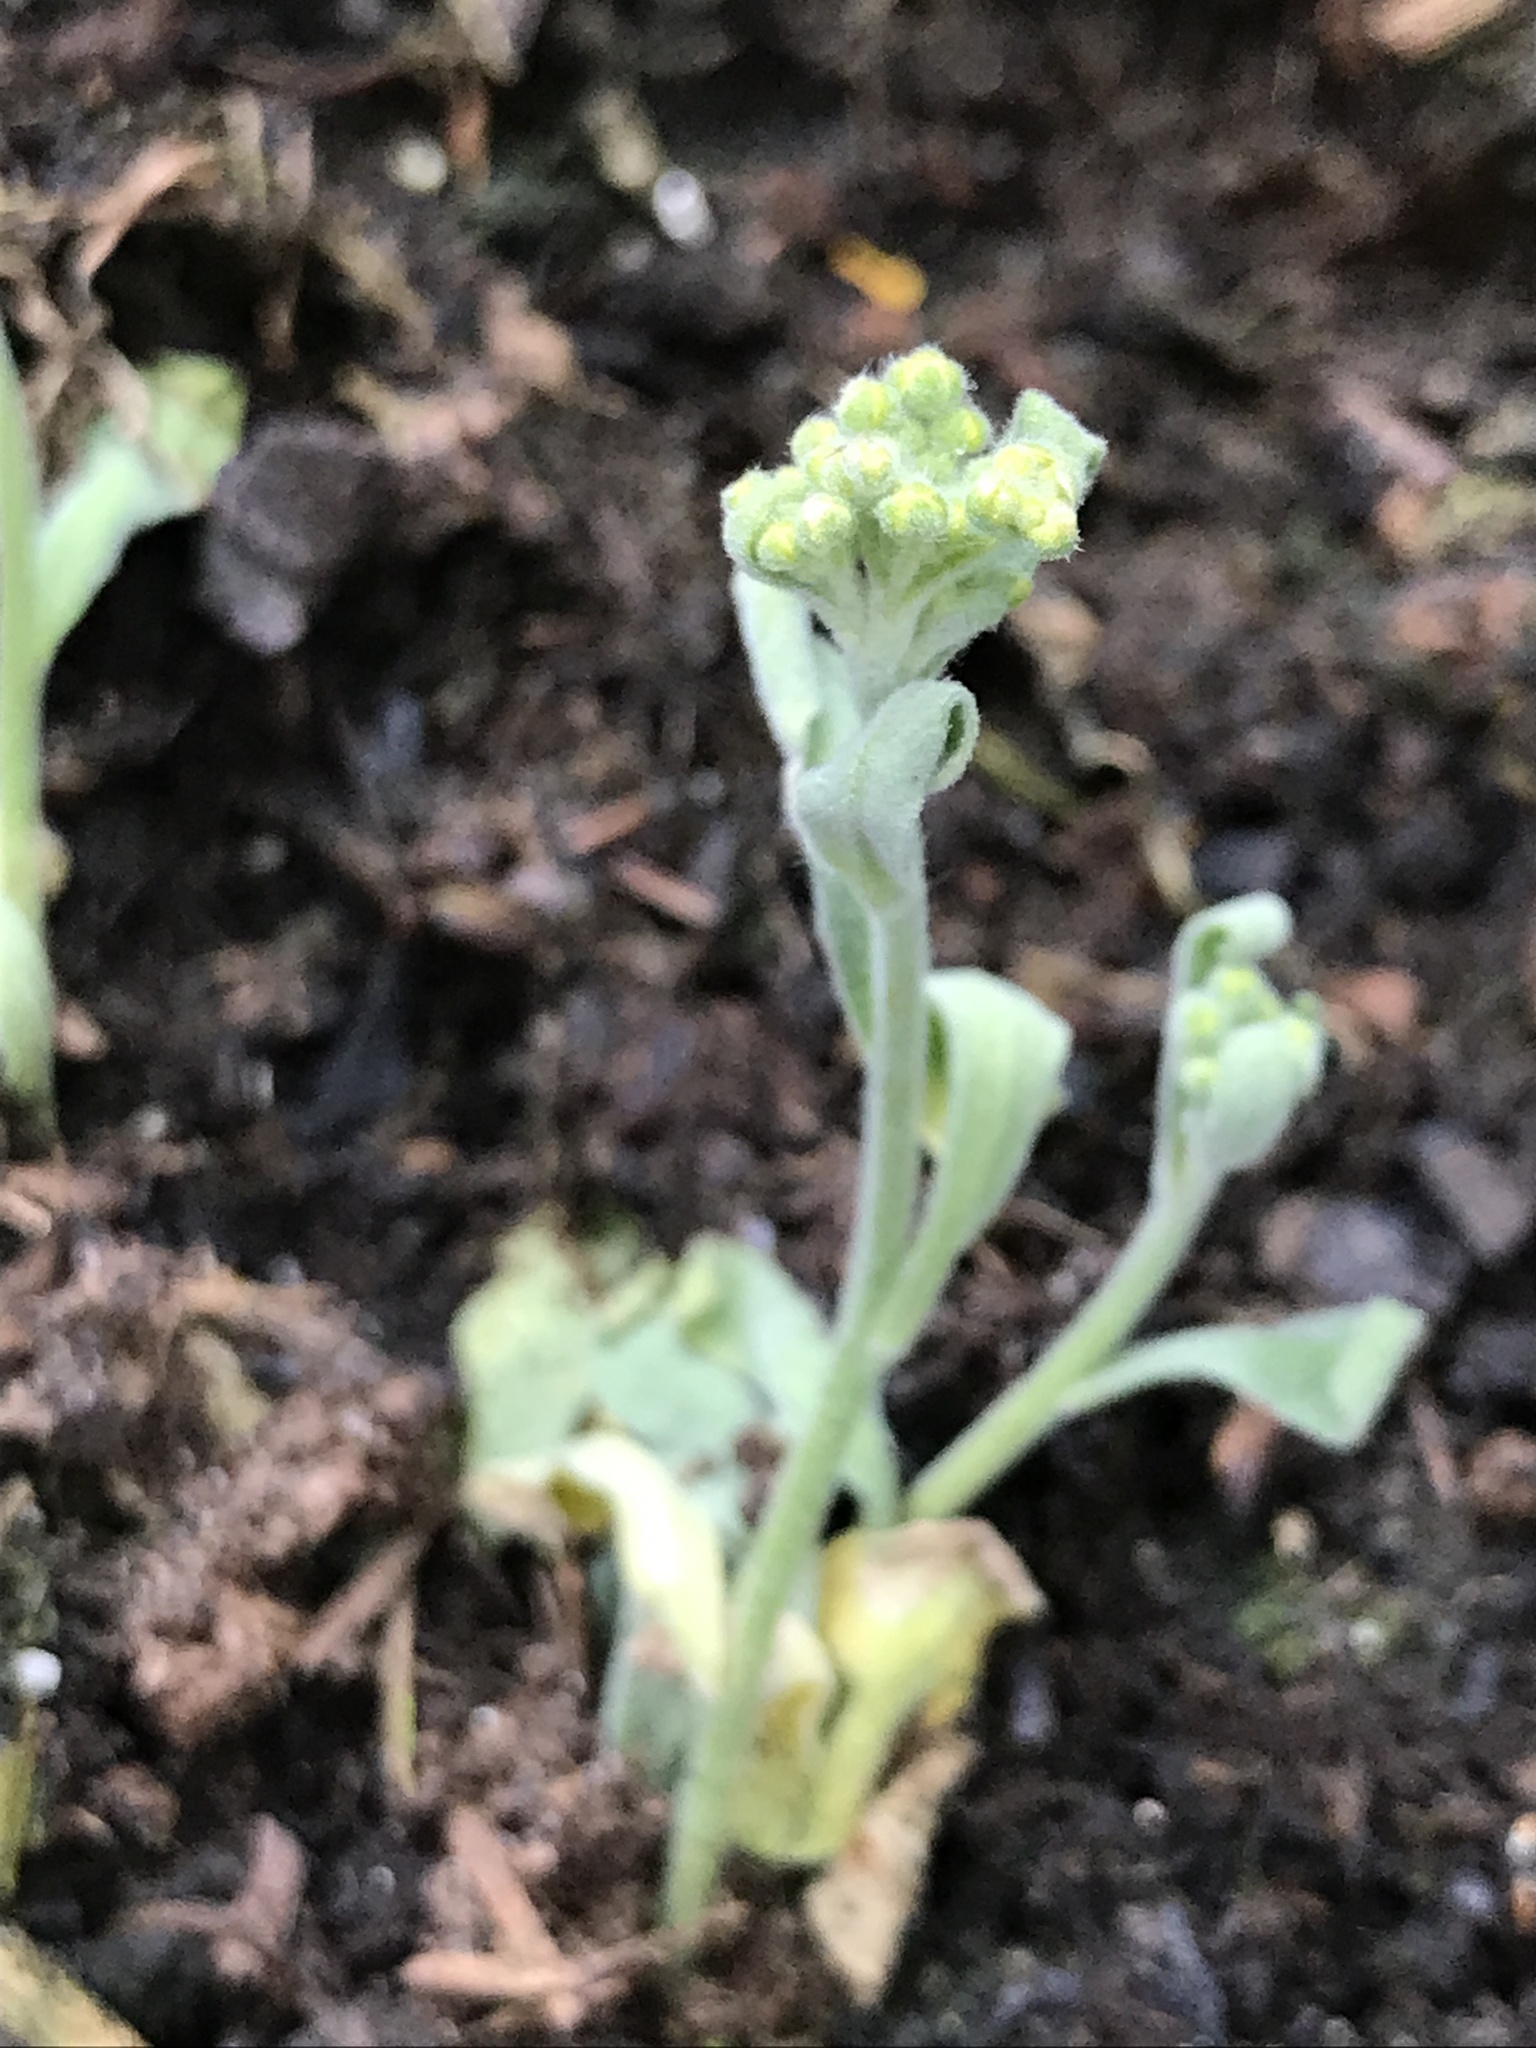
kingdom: Plantae
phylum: Tracheophyta
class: Magnoliopsida
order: Asterales
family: Asteraceae
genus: Helichrysum
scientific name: Helichrysum arenarium
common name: Strawflower
